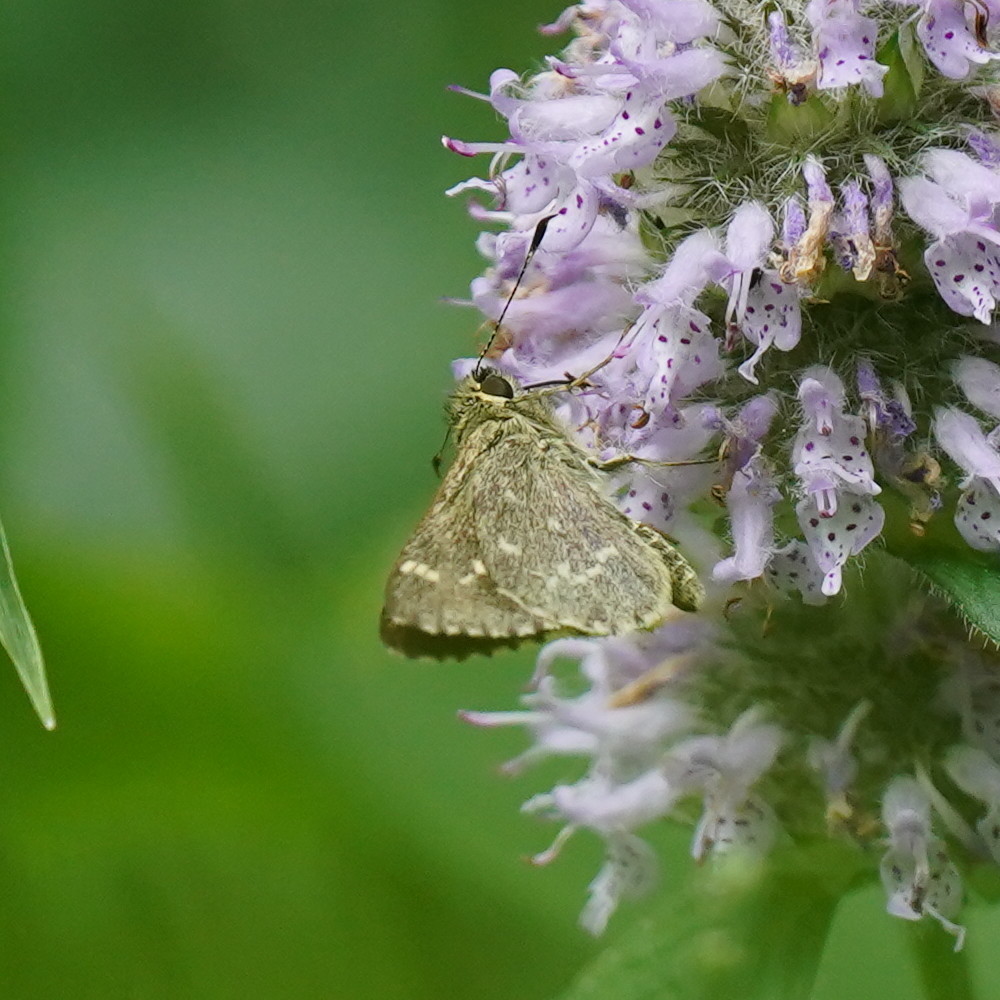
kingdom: Animalia
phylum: Arthropoda
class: Insecta
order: Lepidoptera
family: Hesperiidae
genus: Mastor
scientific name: Mastor hegon
